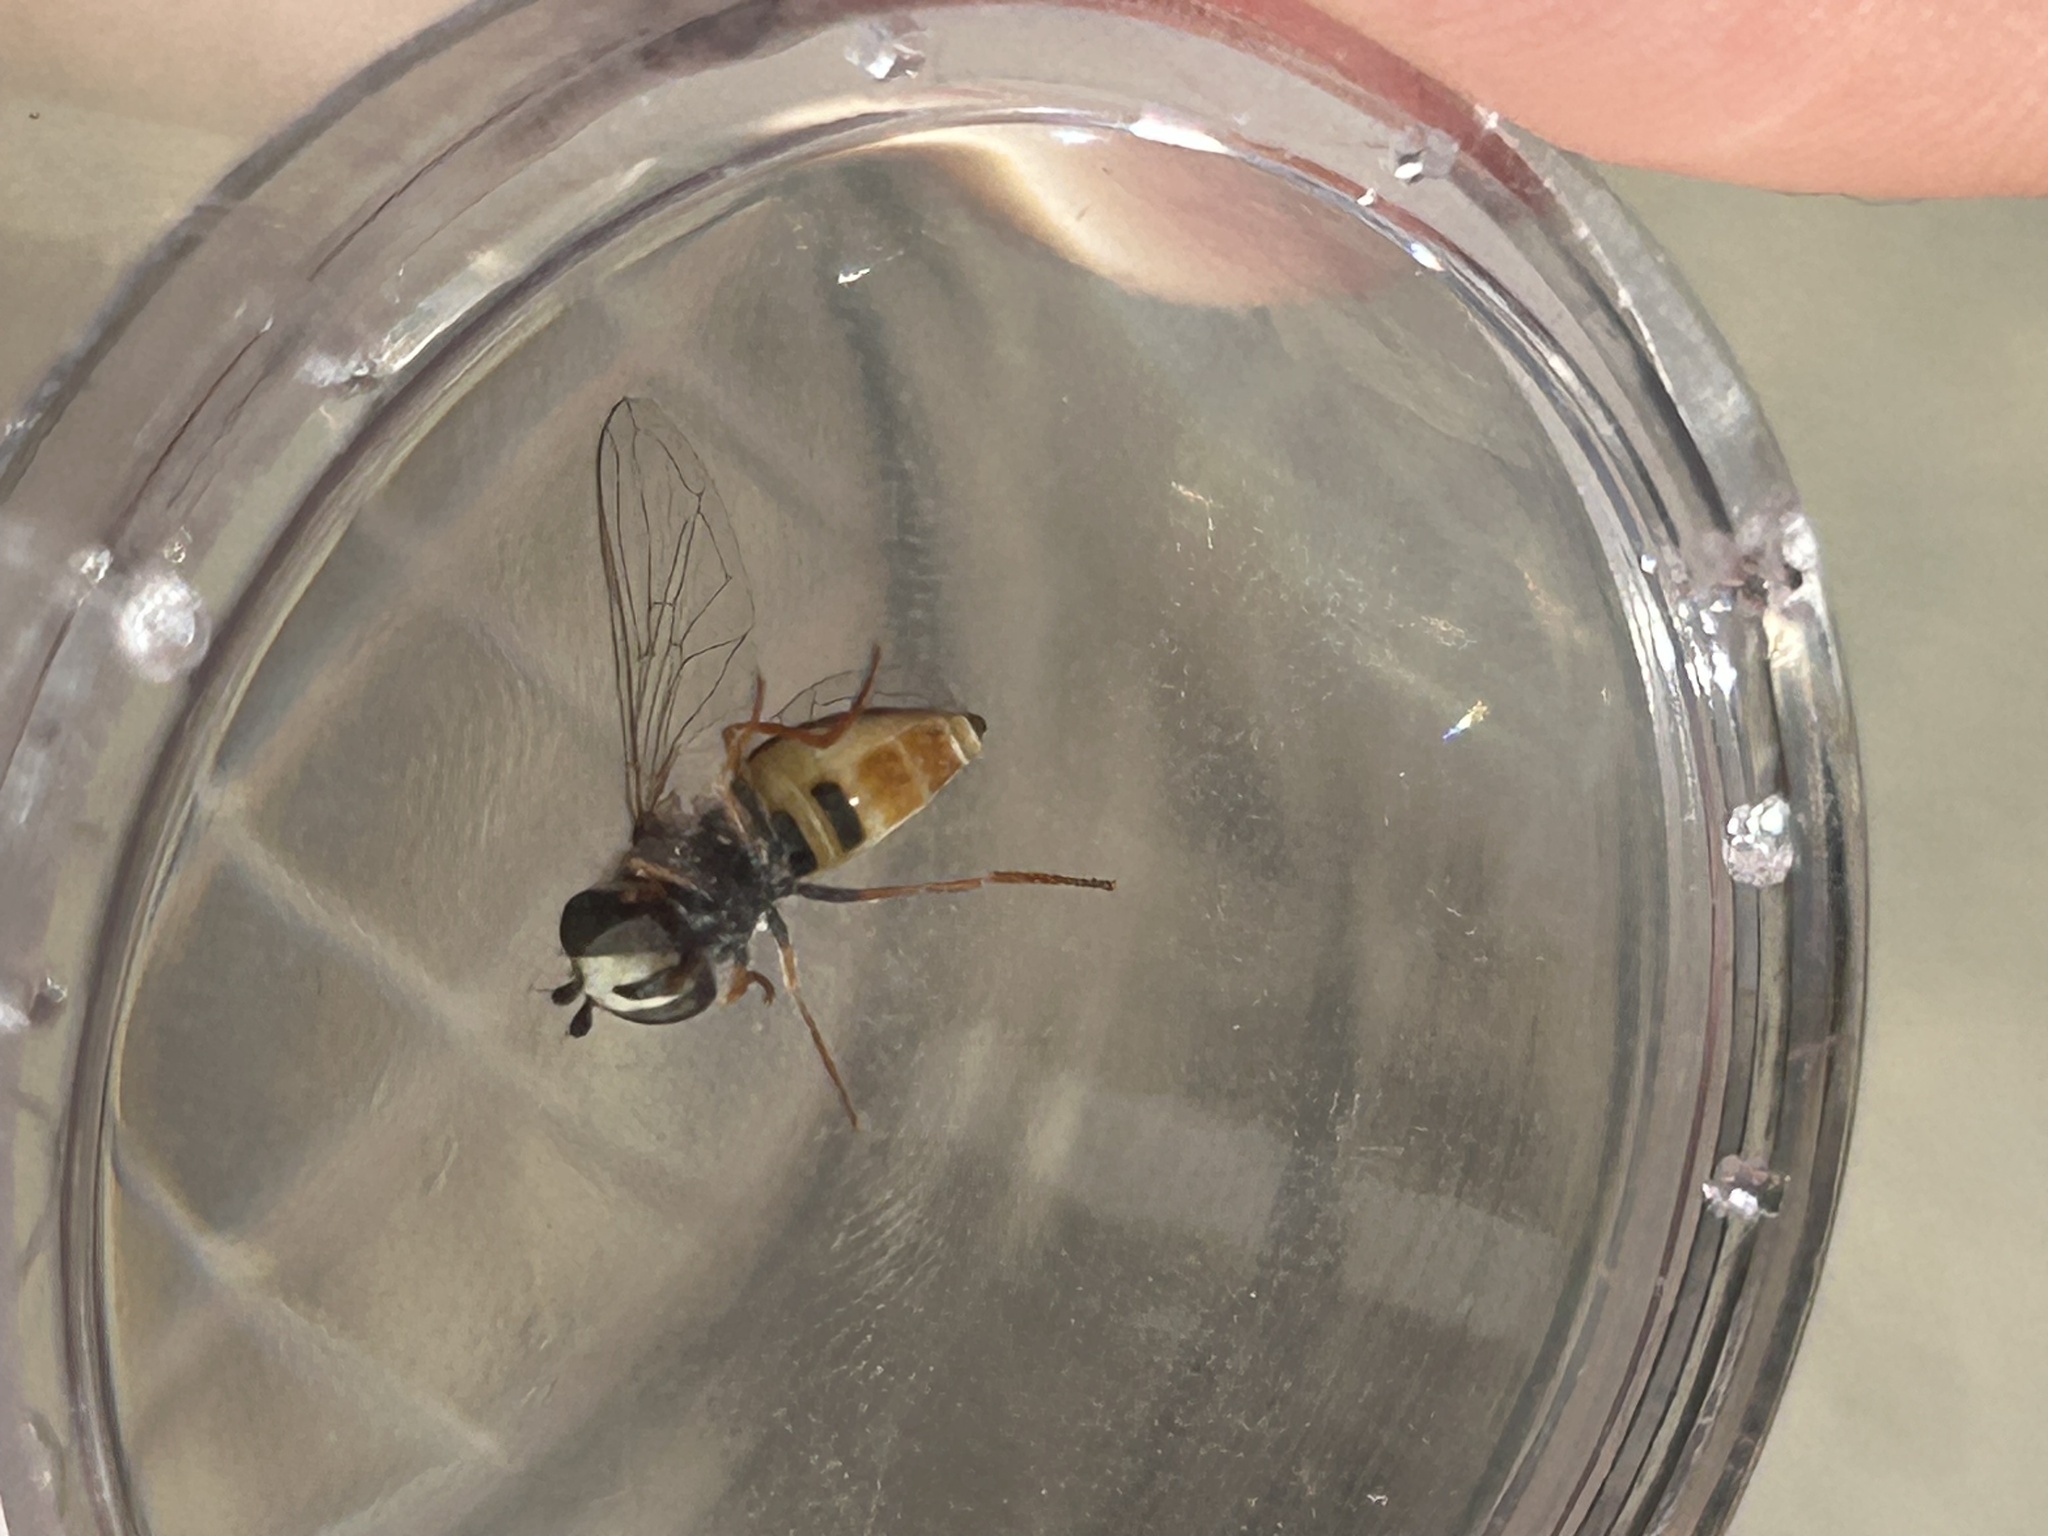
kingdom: Animalia
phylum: Arthropoda
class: Insecta
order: Diptera
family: Syrphidae
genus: Eupeodes
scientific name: Eupeodes volucris
